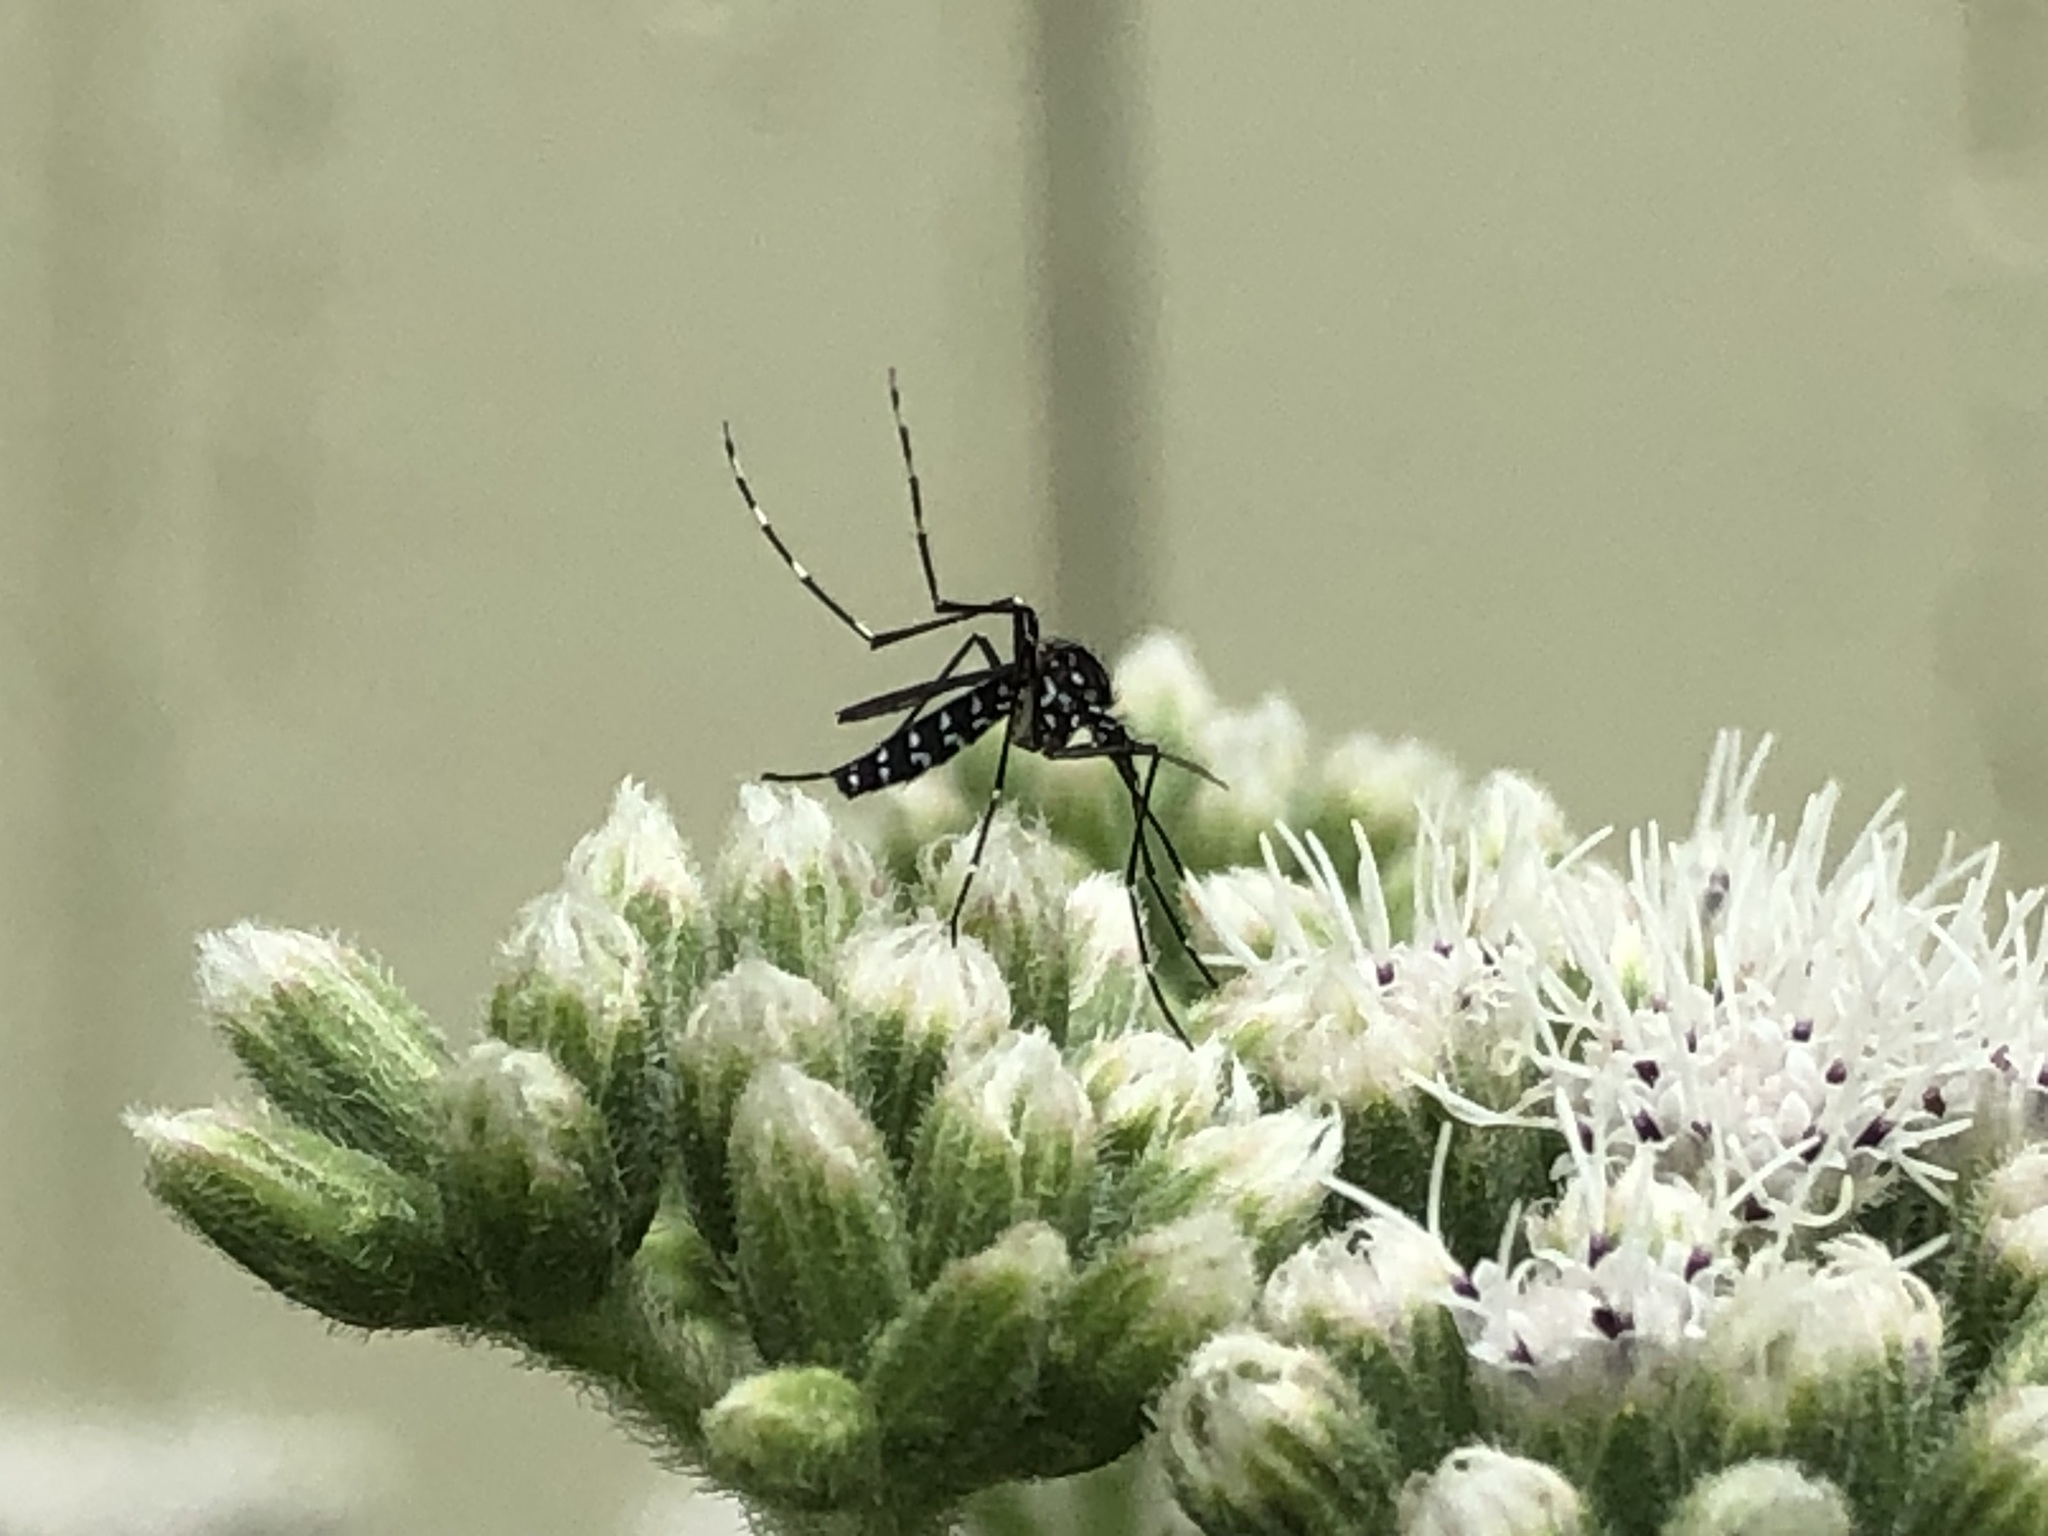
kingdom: Animalia
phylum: Arthropoda
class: Insecta
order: Diptera
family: Culicidae
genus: Aedes
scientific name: Aedes albopictus
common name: Tiger mosquito
